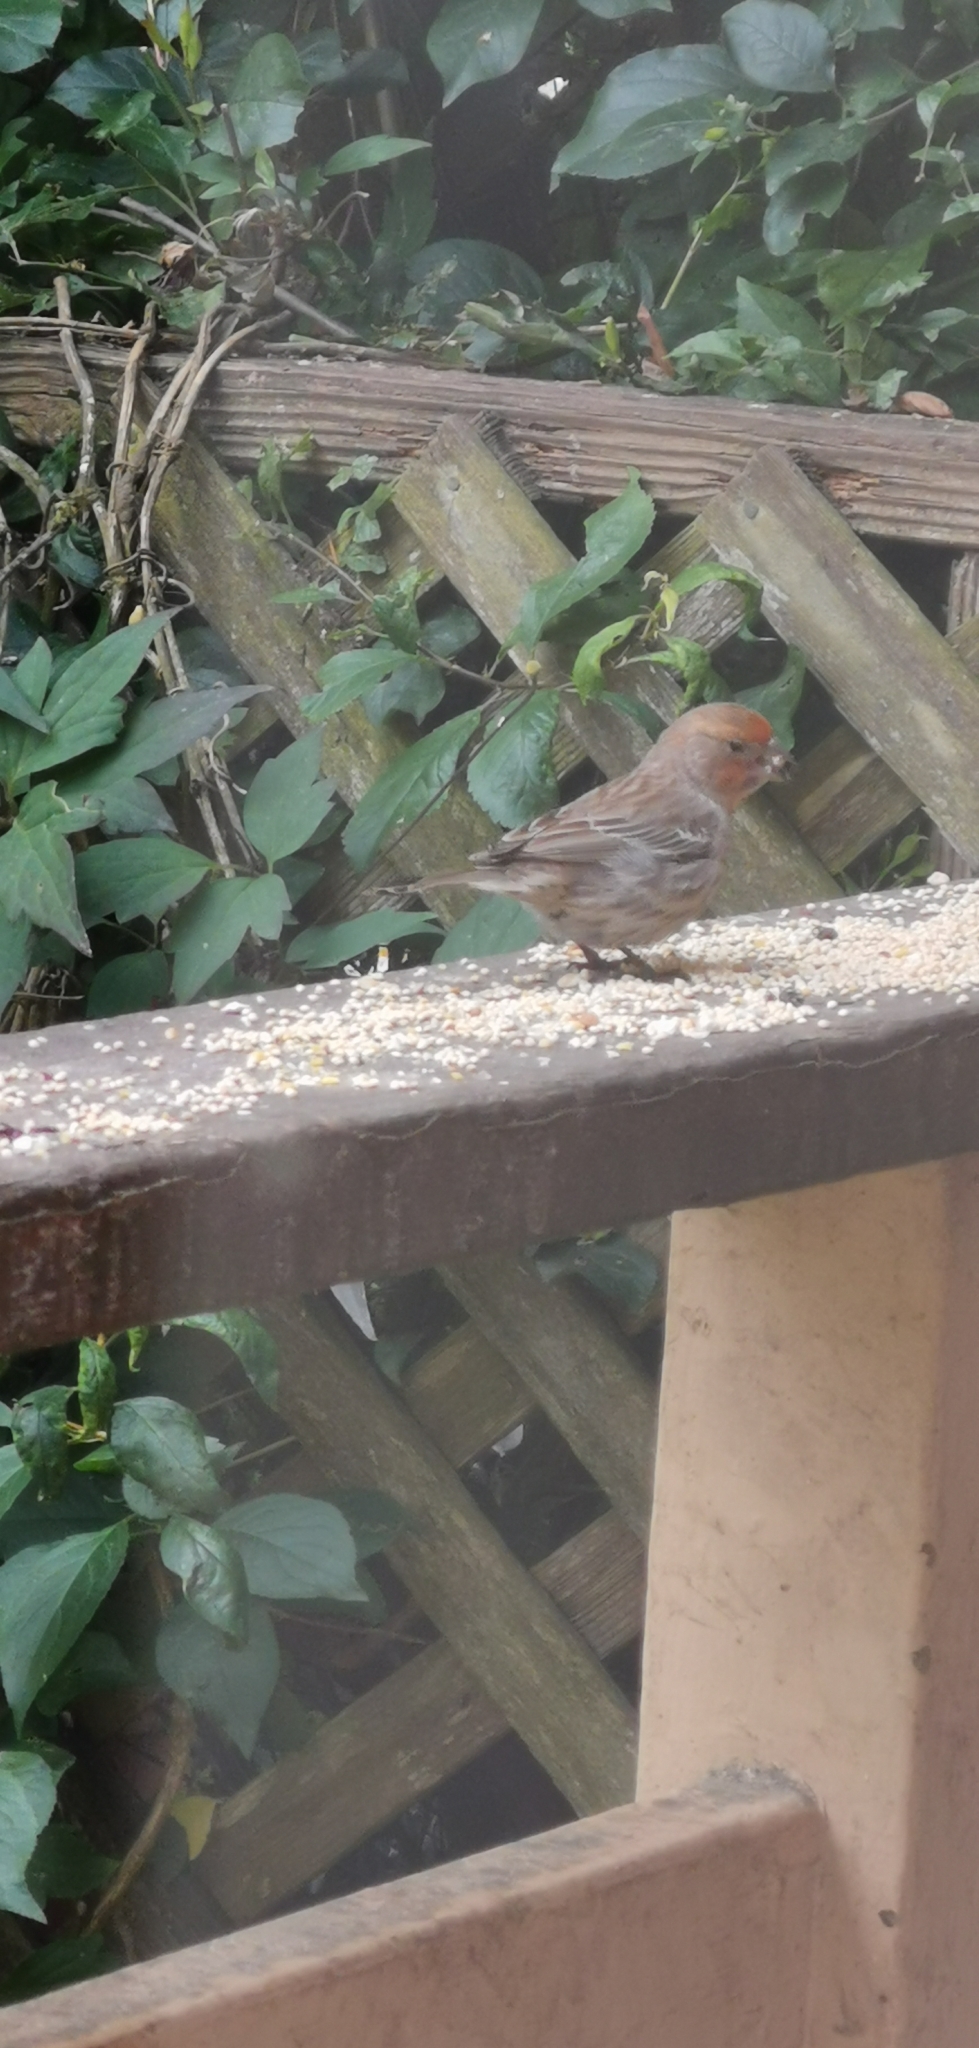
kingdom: Animalia
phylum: Chordata
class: Aves
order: Passeriformes
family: Fringillidae
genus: Haemorhous
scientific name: Haemorhous mexicanus
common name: House finch
